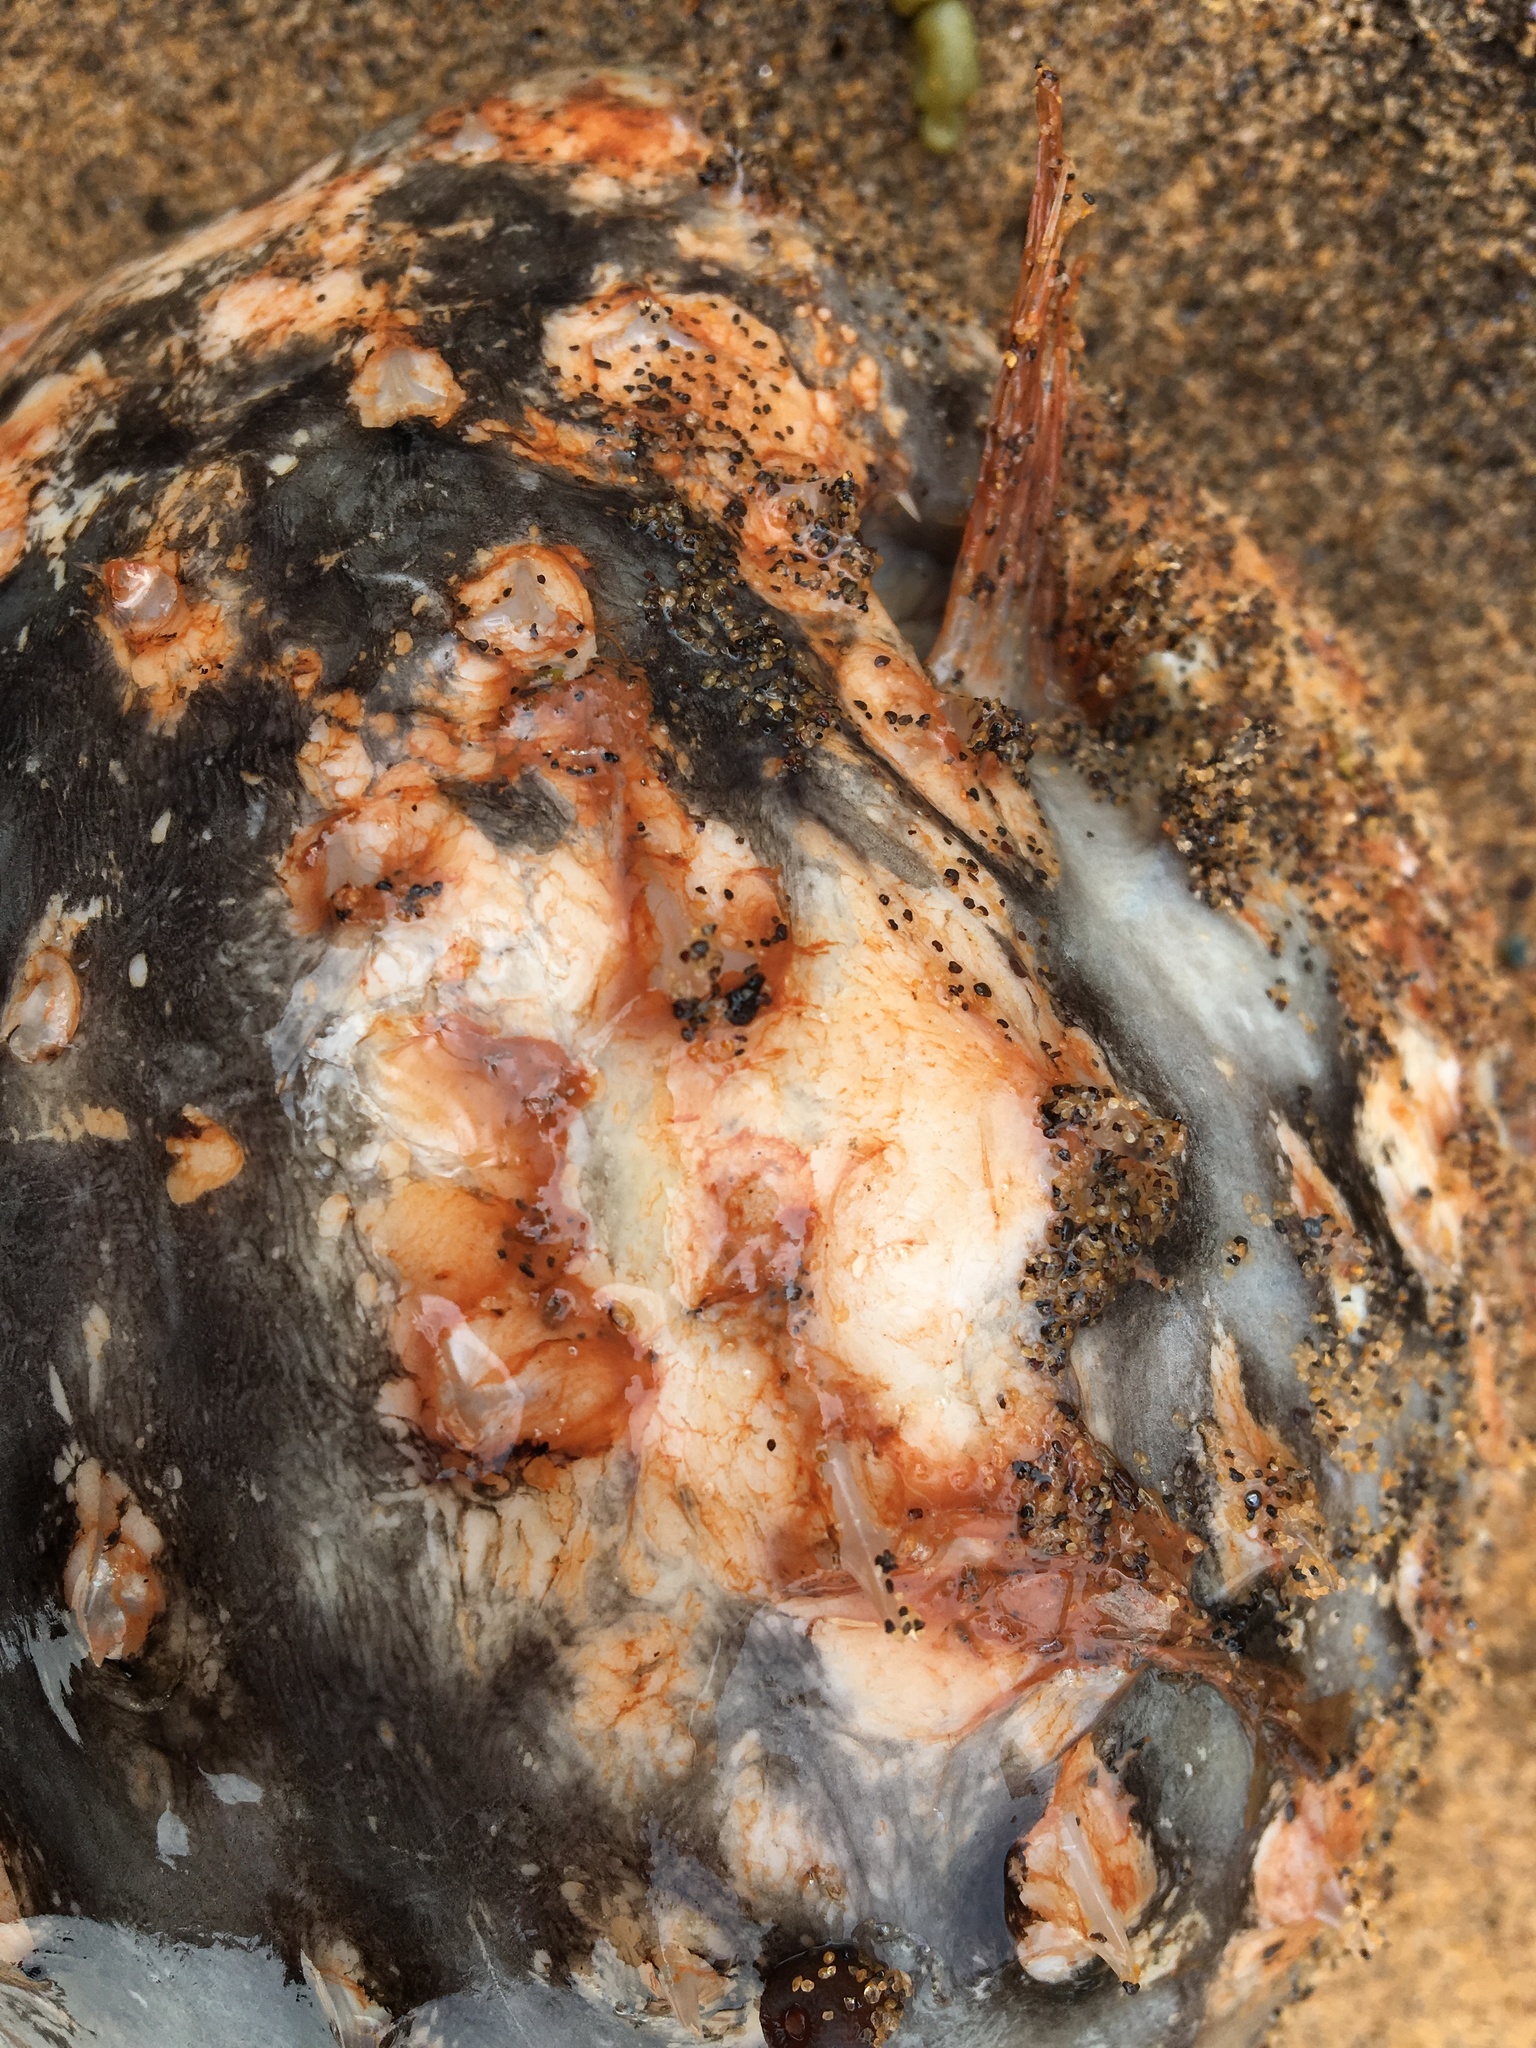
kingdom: Animalia
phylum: Chordata
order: Tetraodontiformes
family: Diodontidae
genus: Allomycterus
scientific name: Allomycterus pilatus
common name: No common name
